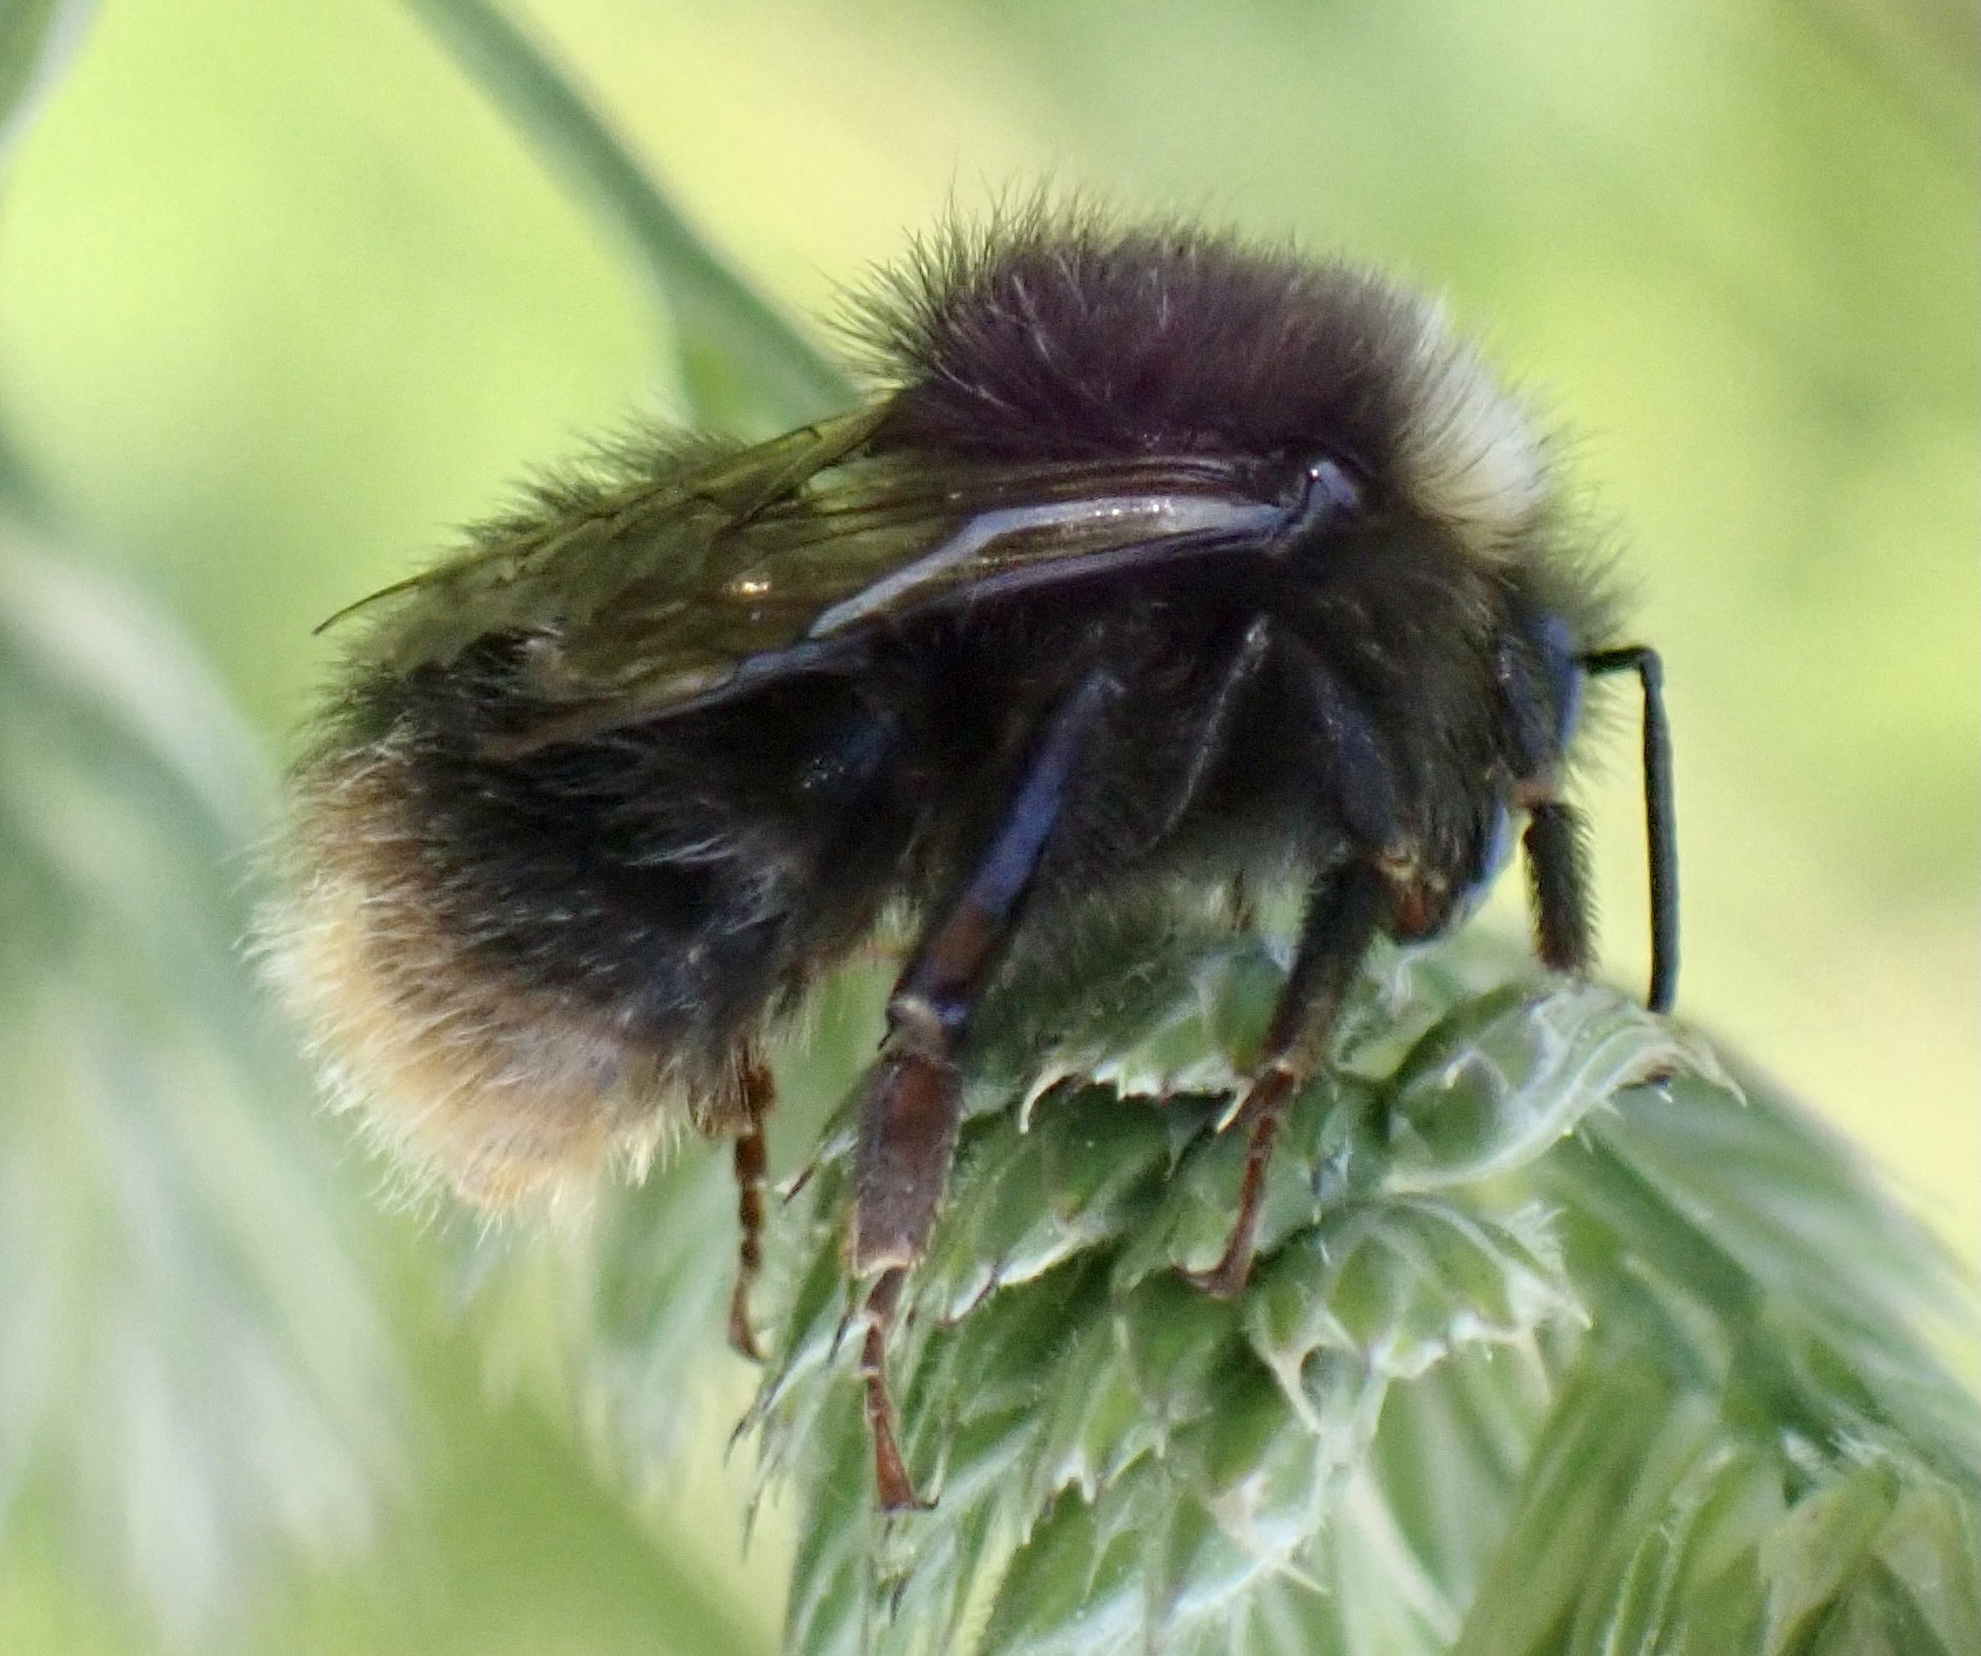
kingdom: Animalia
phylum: Arthropoda
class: Insecta
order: Hymenoptera
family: Apidae
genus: Bombus
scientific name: Bombus pratorum
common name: Early humble-bee
